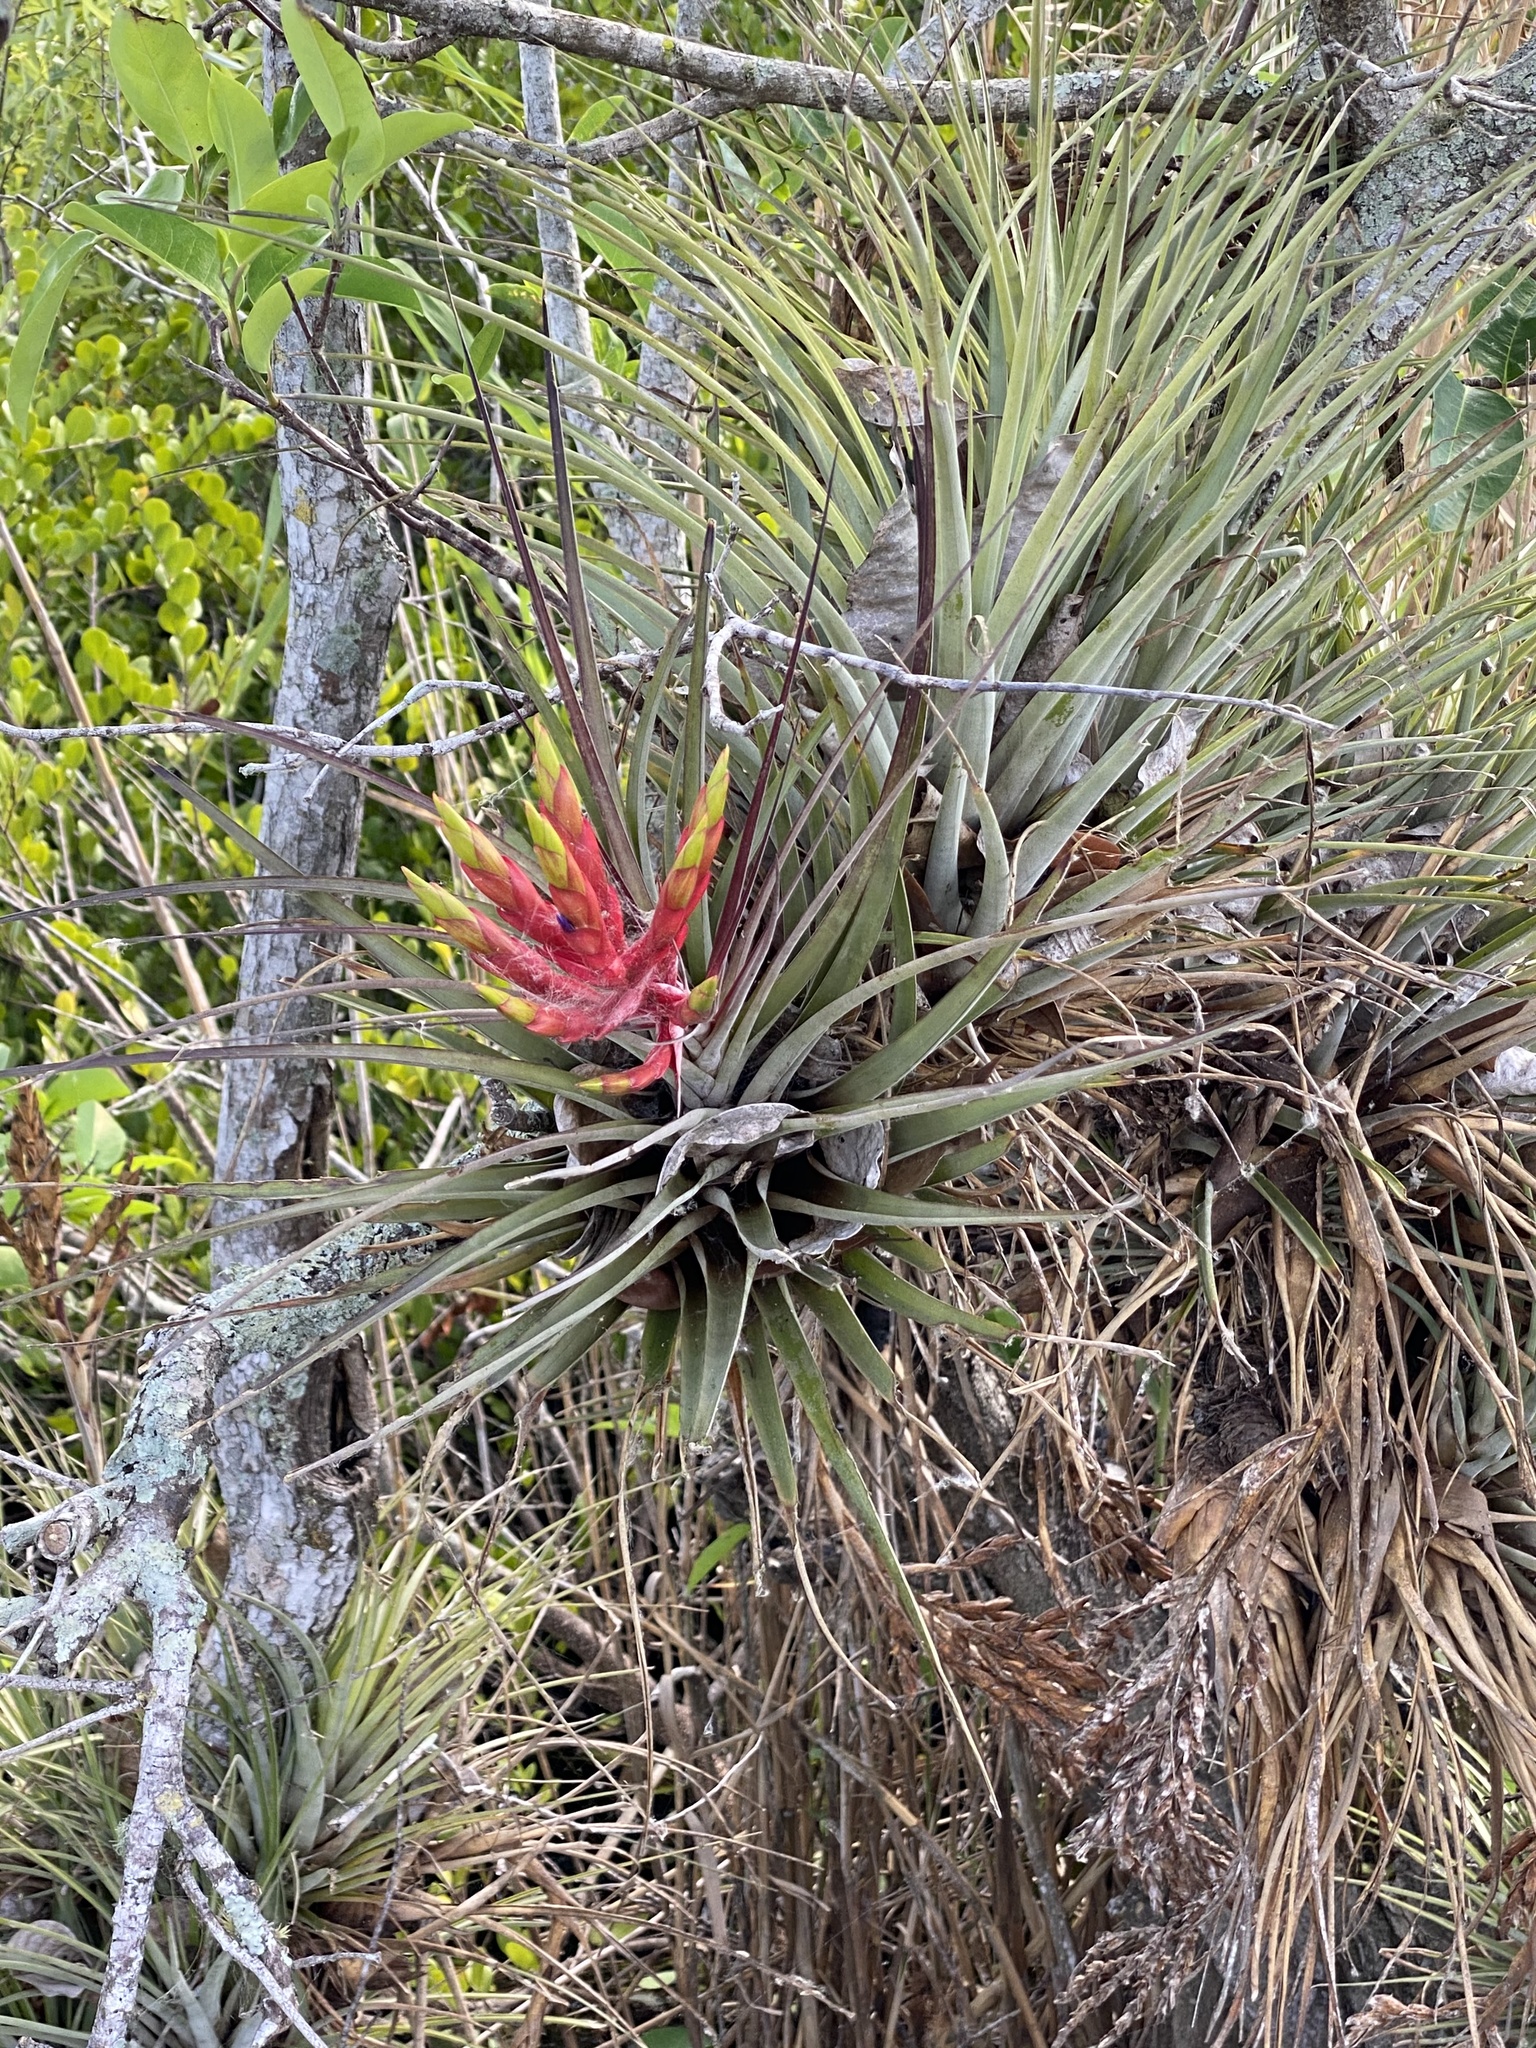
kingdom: Plantae
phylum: Tracheophyta
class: Liliopsida
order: Poales
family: Bromeliaceae
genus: Tillandsia
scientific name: Tillandsia fasciculata
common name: Giant airplant
